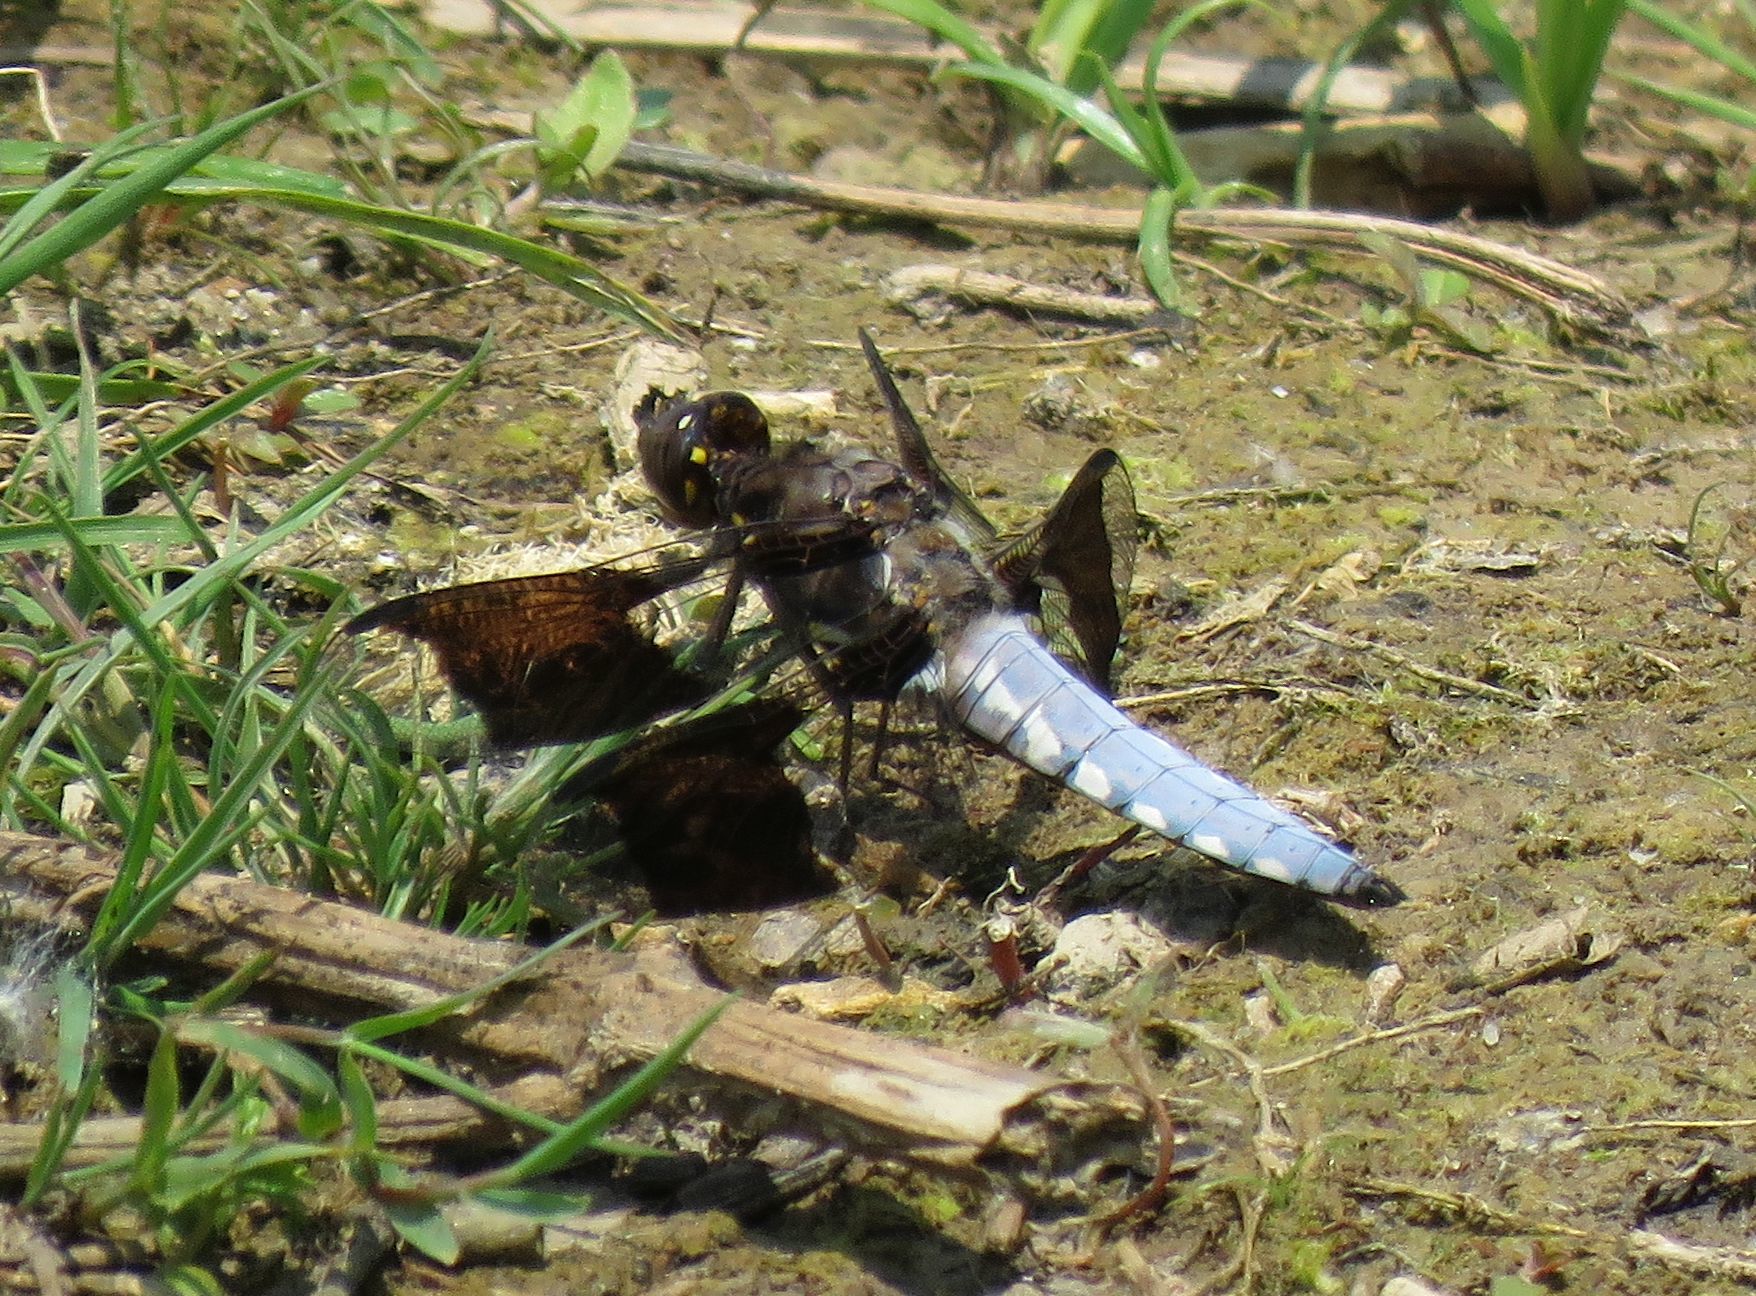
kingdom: Animalia
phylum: Arthropoda
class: Insecta
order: Odonata
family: Libellulidae
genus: Plathemis
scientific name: Plathemis lydia
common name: Common whitetail
